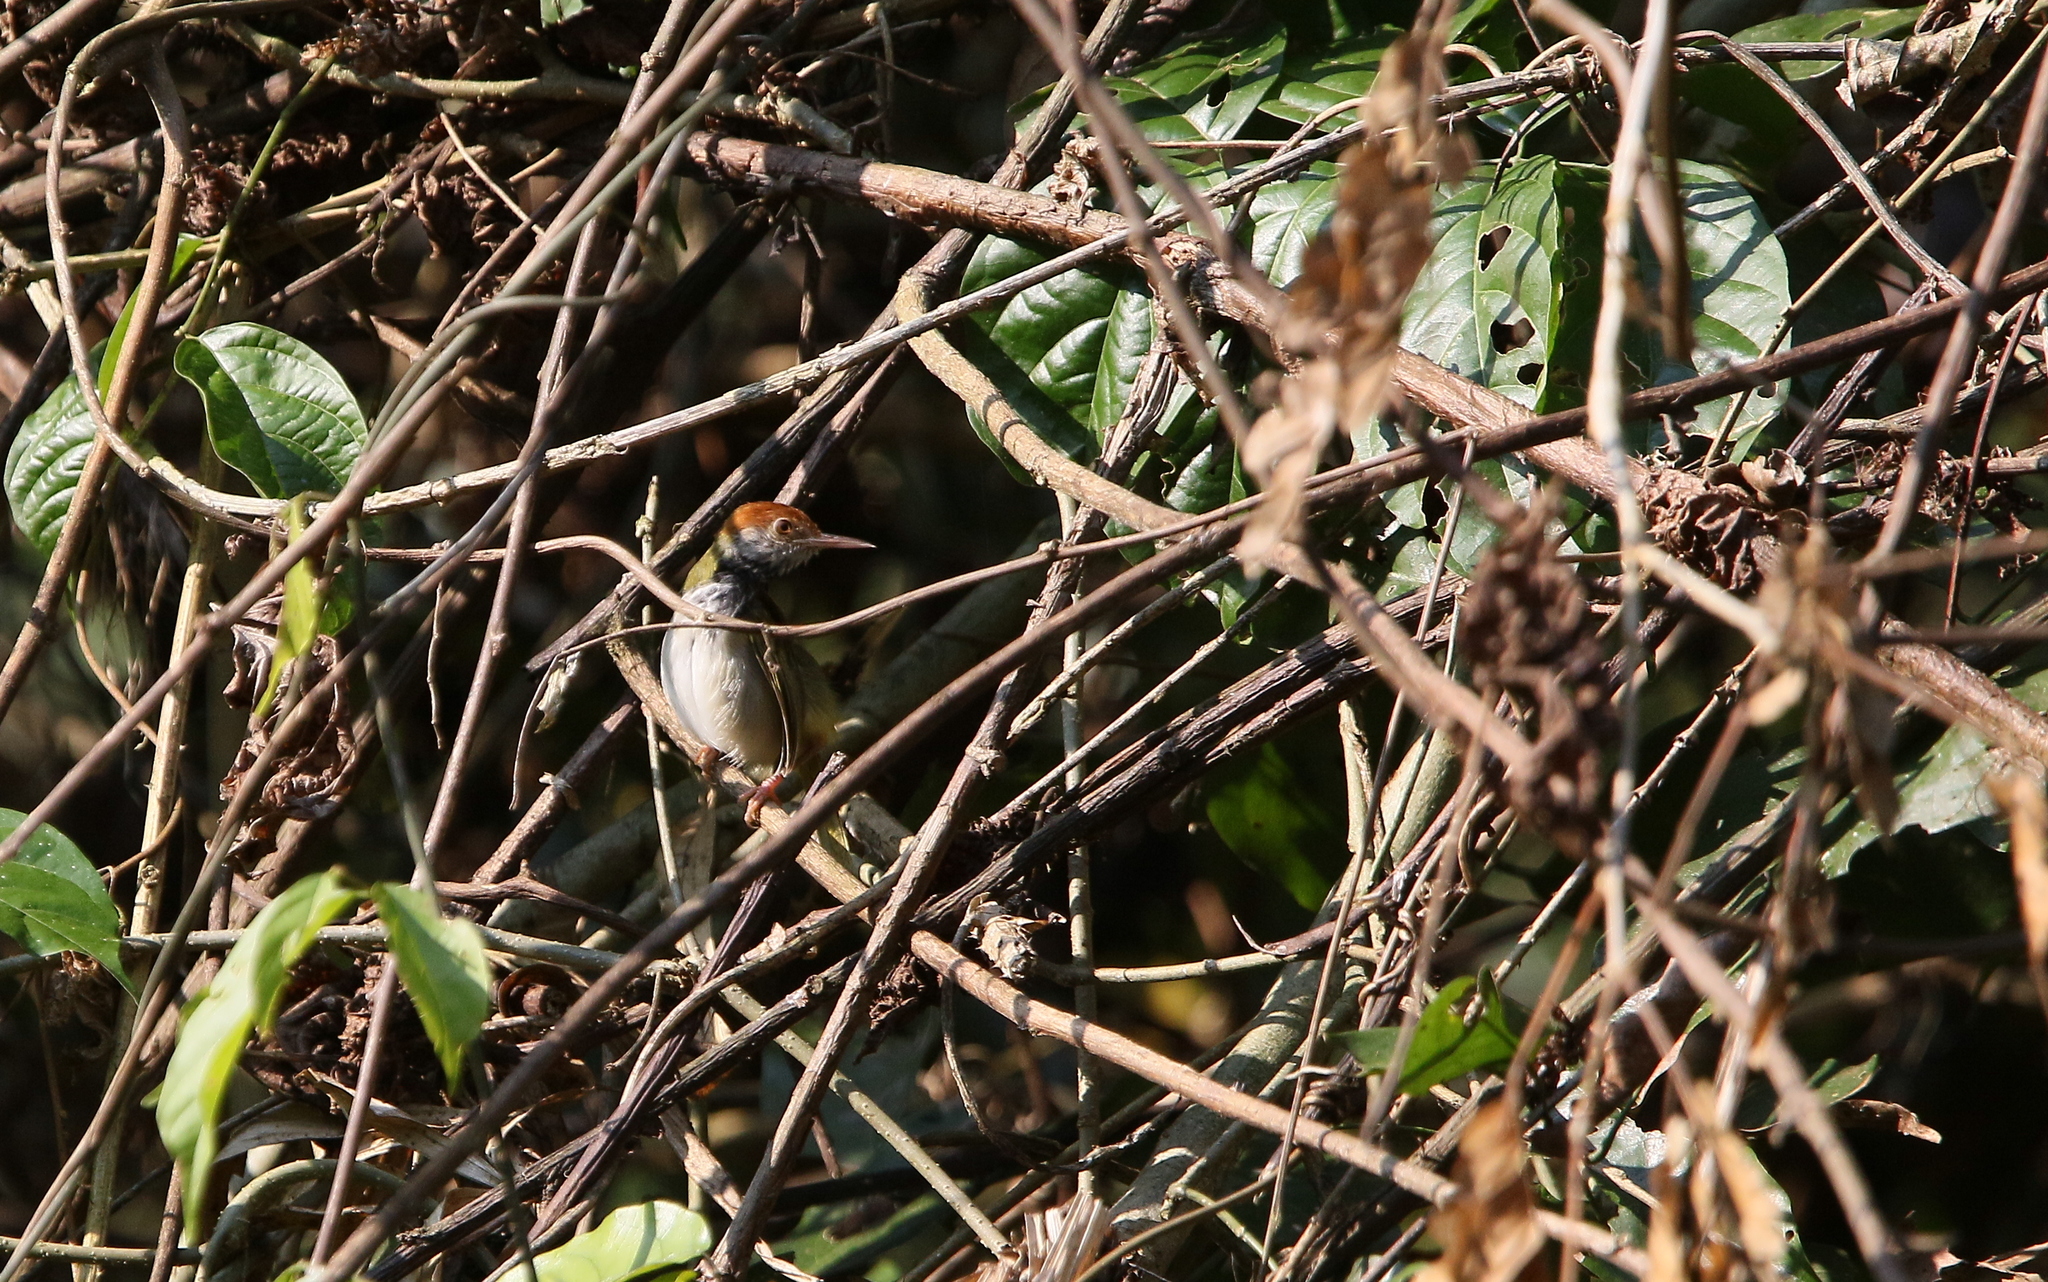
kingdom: Animalia
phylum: Chordata
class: Aves
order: Passeriformes
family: Cisticolidae
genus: Orthotomus
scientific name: Orthotomus atrogularis
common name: Dark-necked tailorbird
